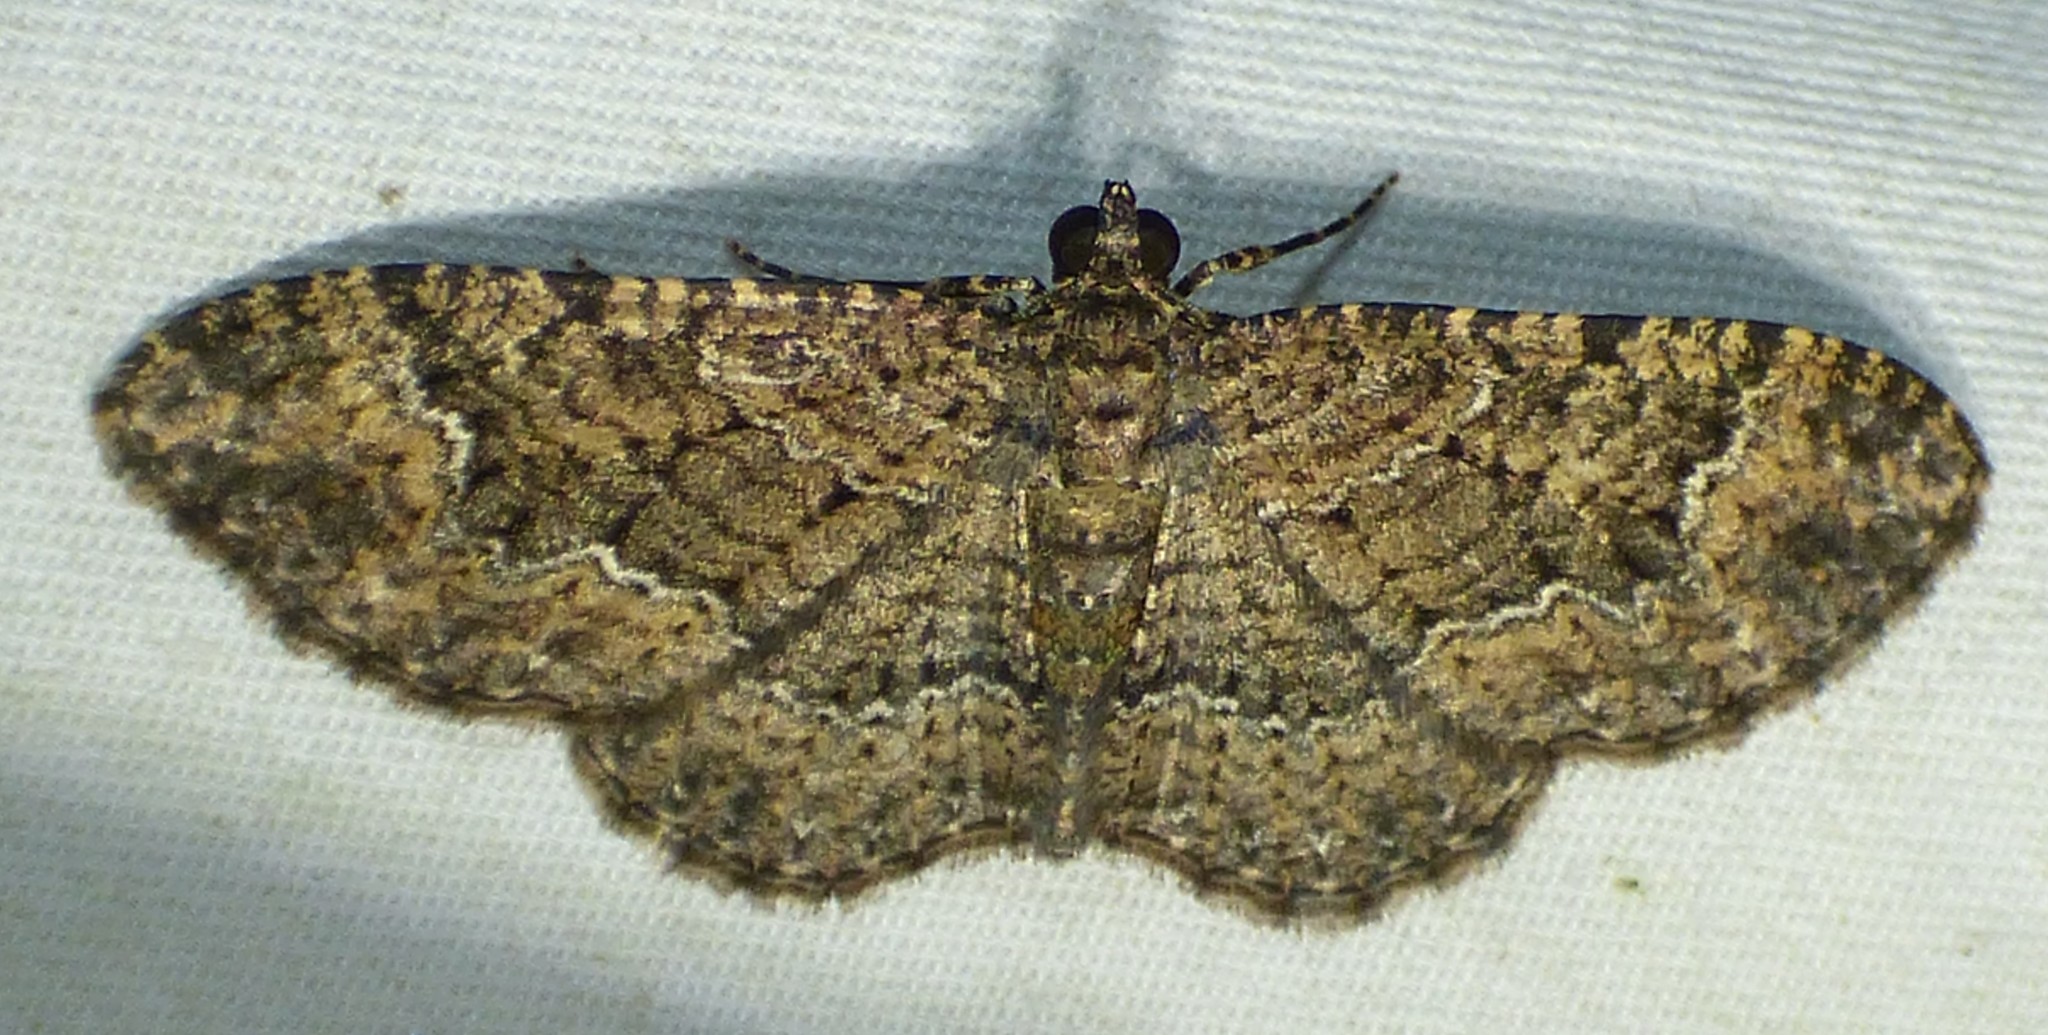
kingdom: Animalia
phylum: Arthropoda
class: Insecta
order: Lepidoptera
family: Geometridae
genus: Disclisioprocta
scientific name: Disclisioprocta stellata
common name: Somber carpet
